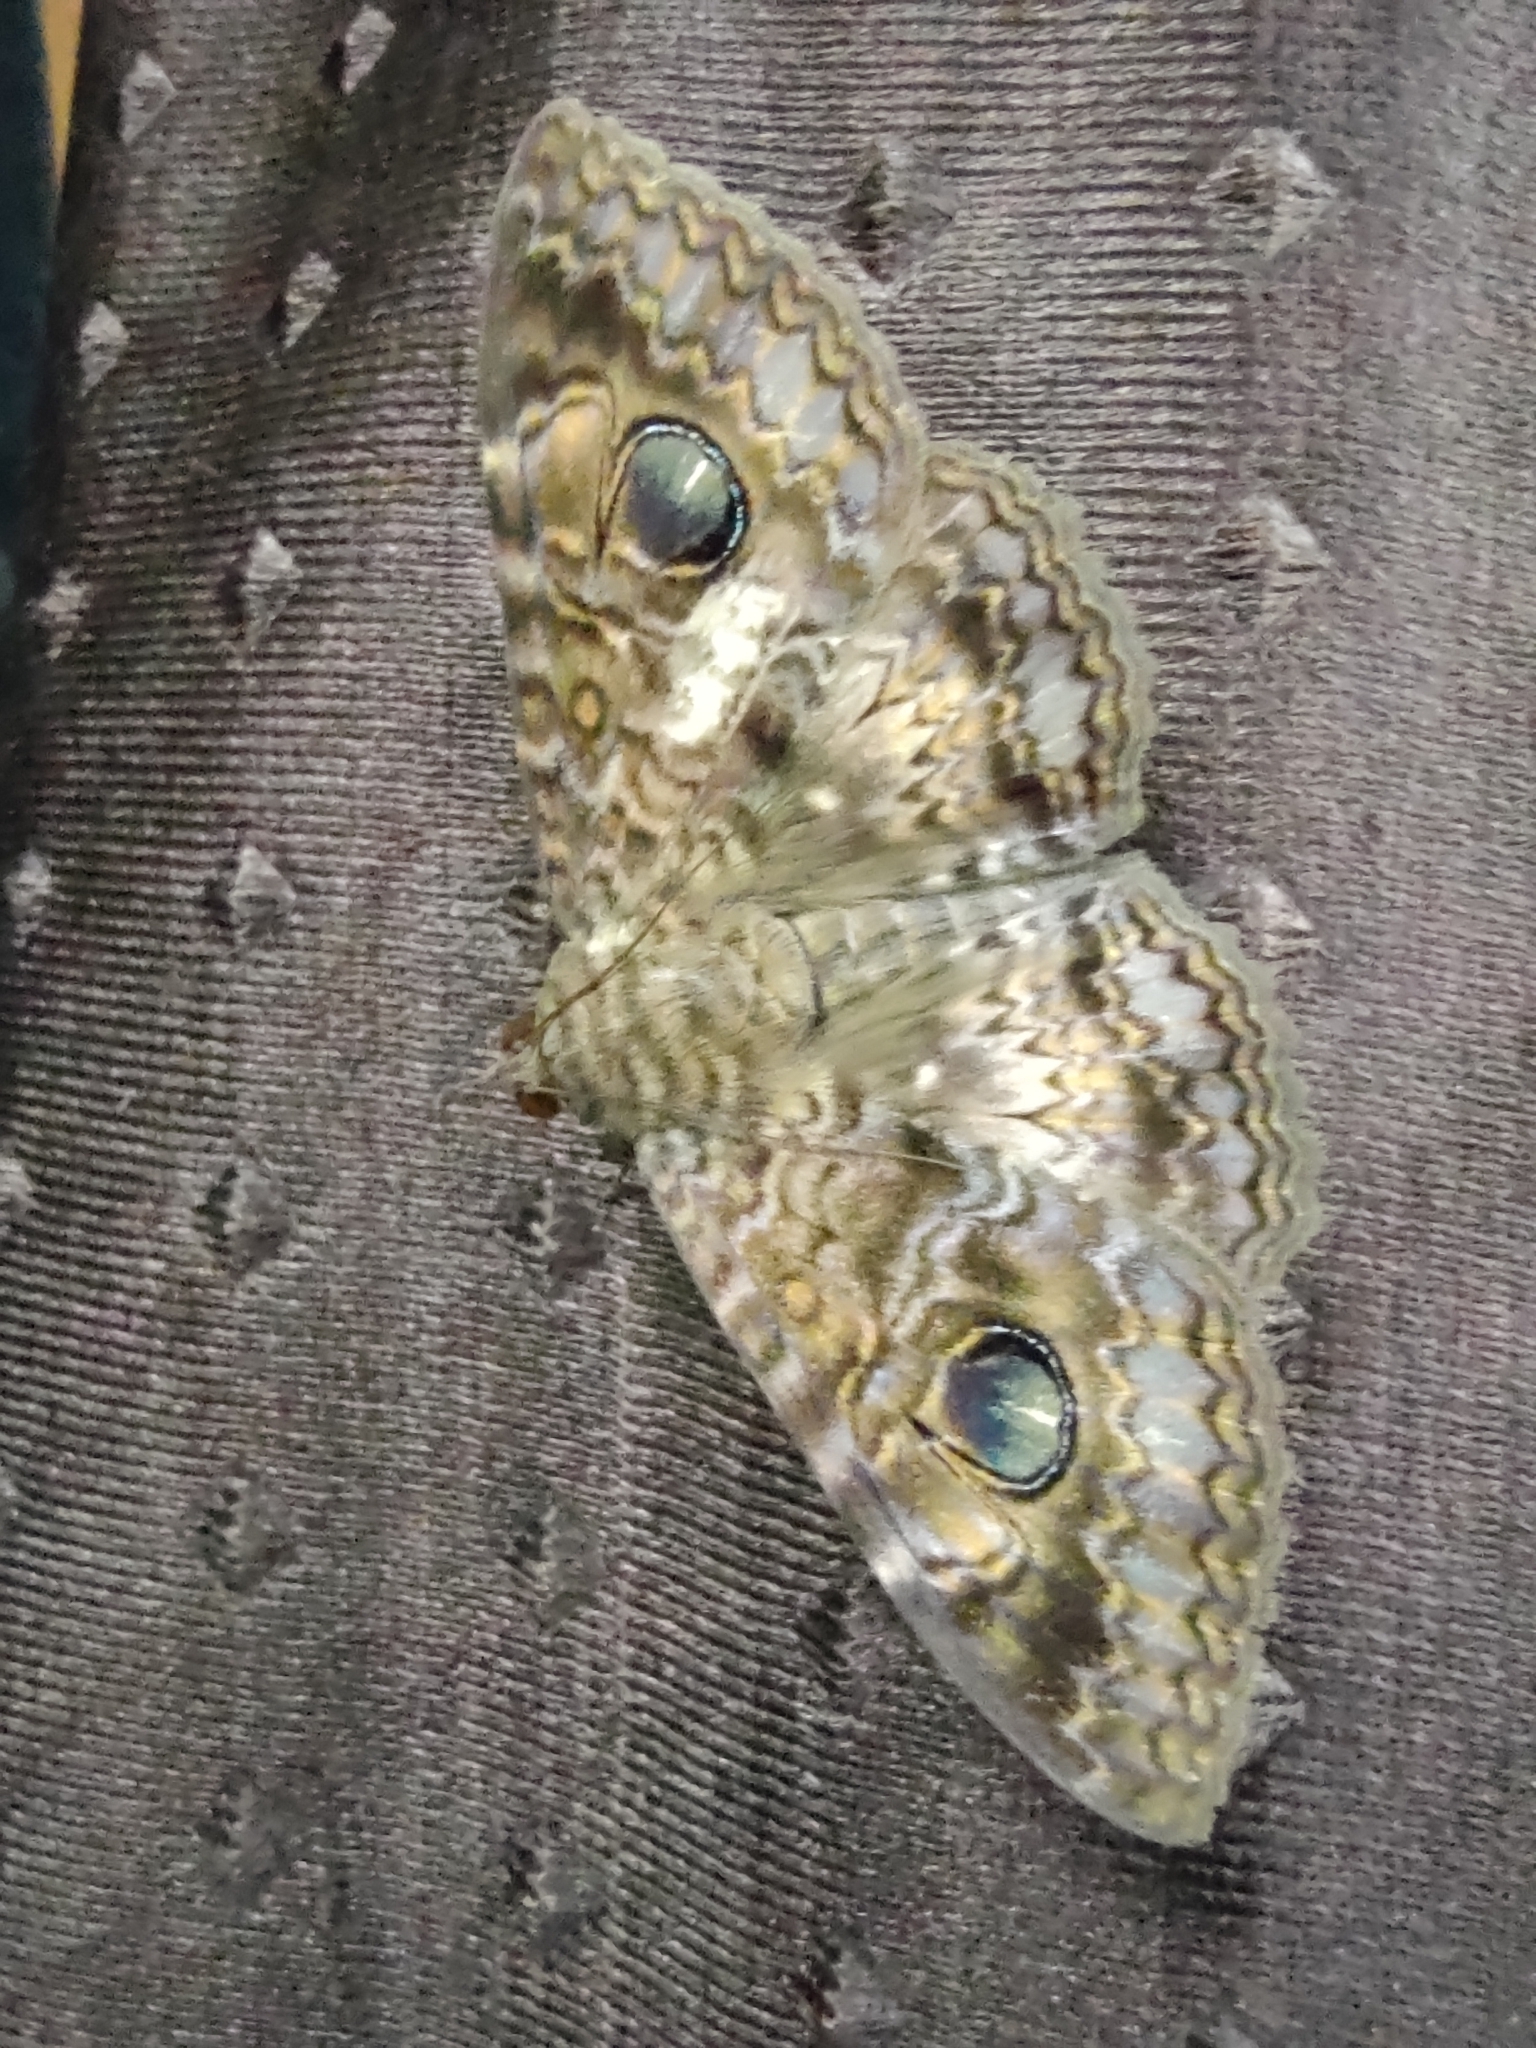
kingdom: Animalia
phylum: Arthropoda
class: Insecta
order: Lepidoptera
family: Erebidae
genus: Speiredonia
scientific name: Speiredonia obscura
